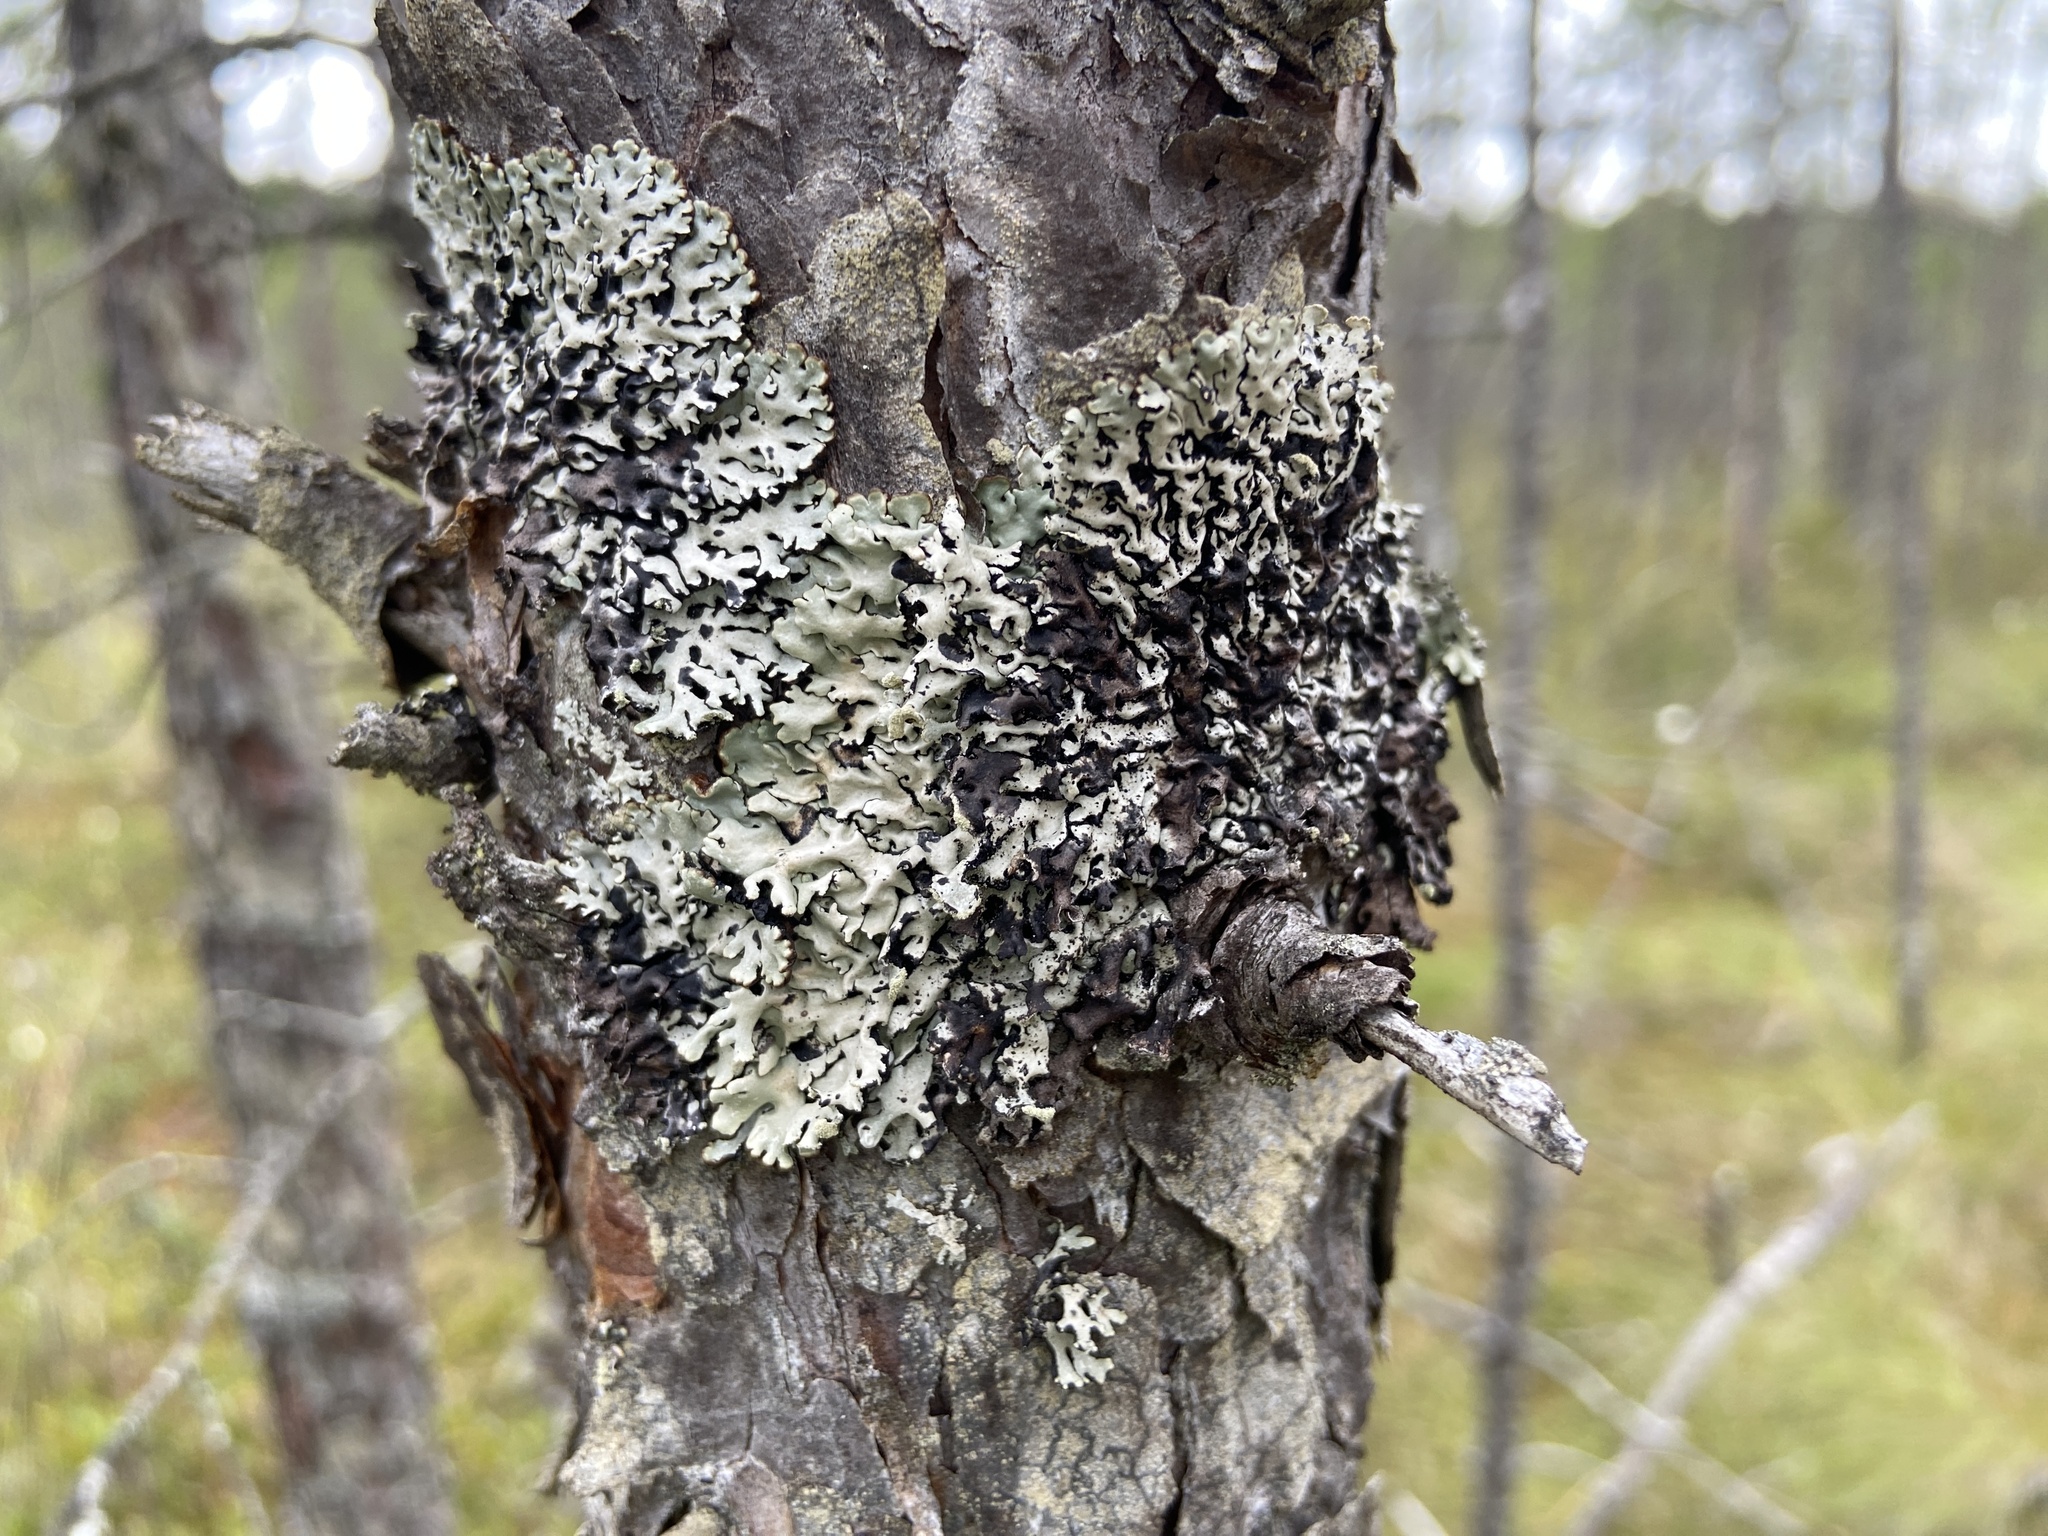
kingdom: Fungi
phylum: Ascomycota
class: Lecanoromycetes
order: Lecanorales
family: Parmeliaceae
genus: Hypogymnia
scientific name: Hypogymnia physodes
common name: Dark crottle
